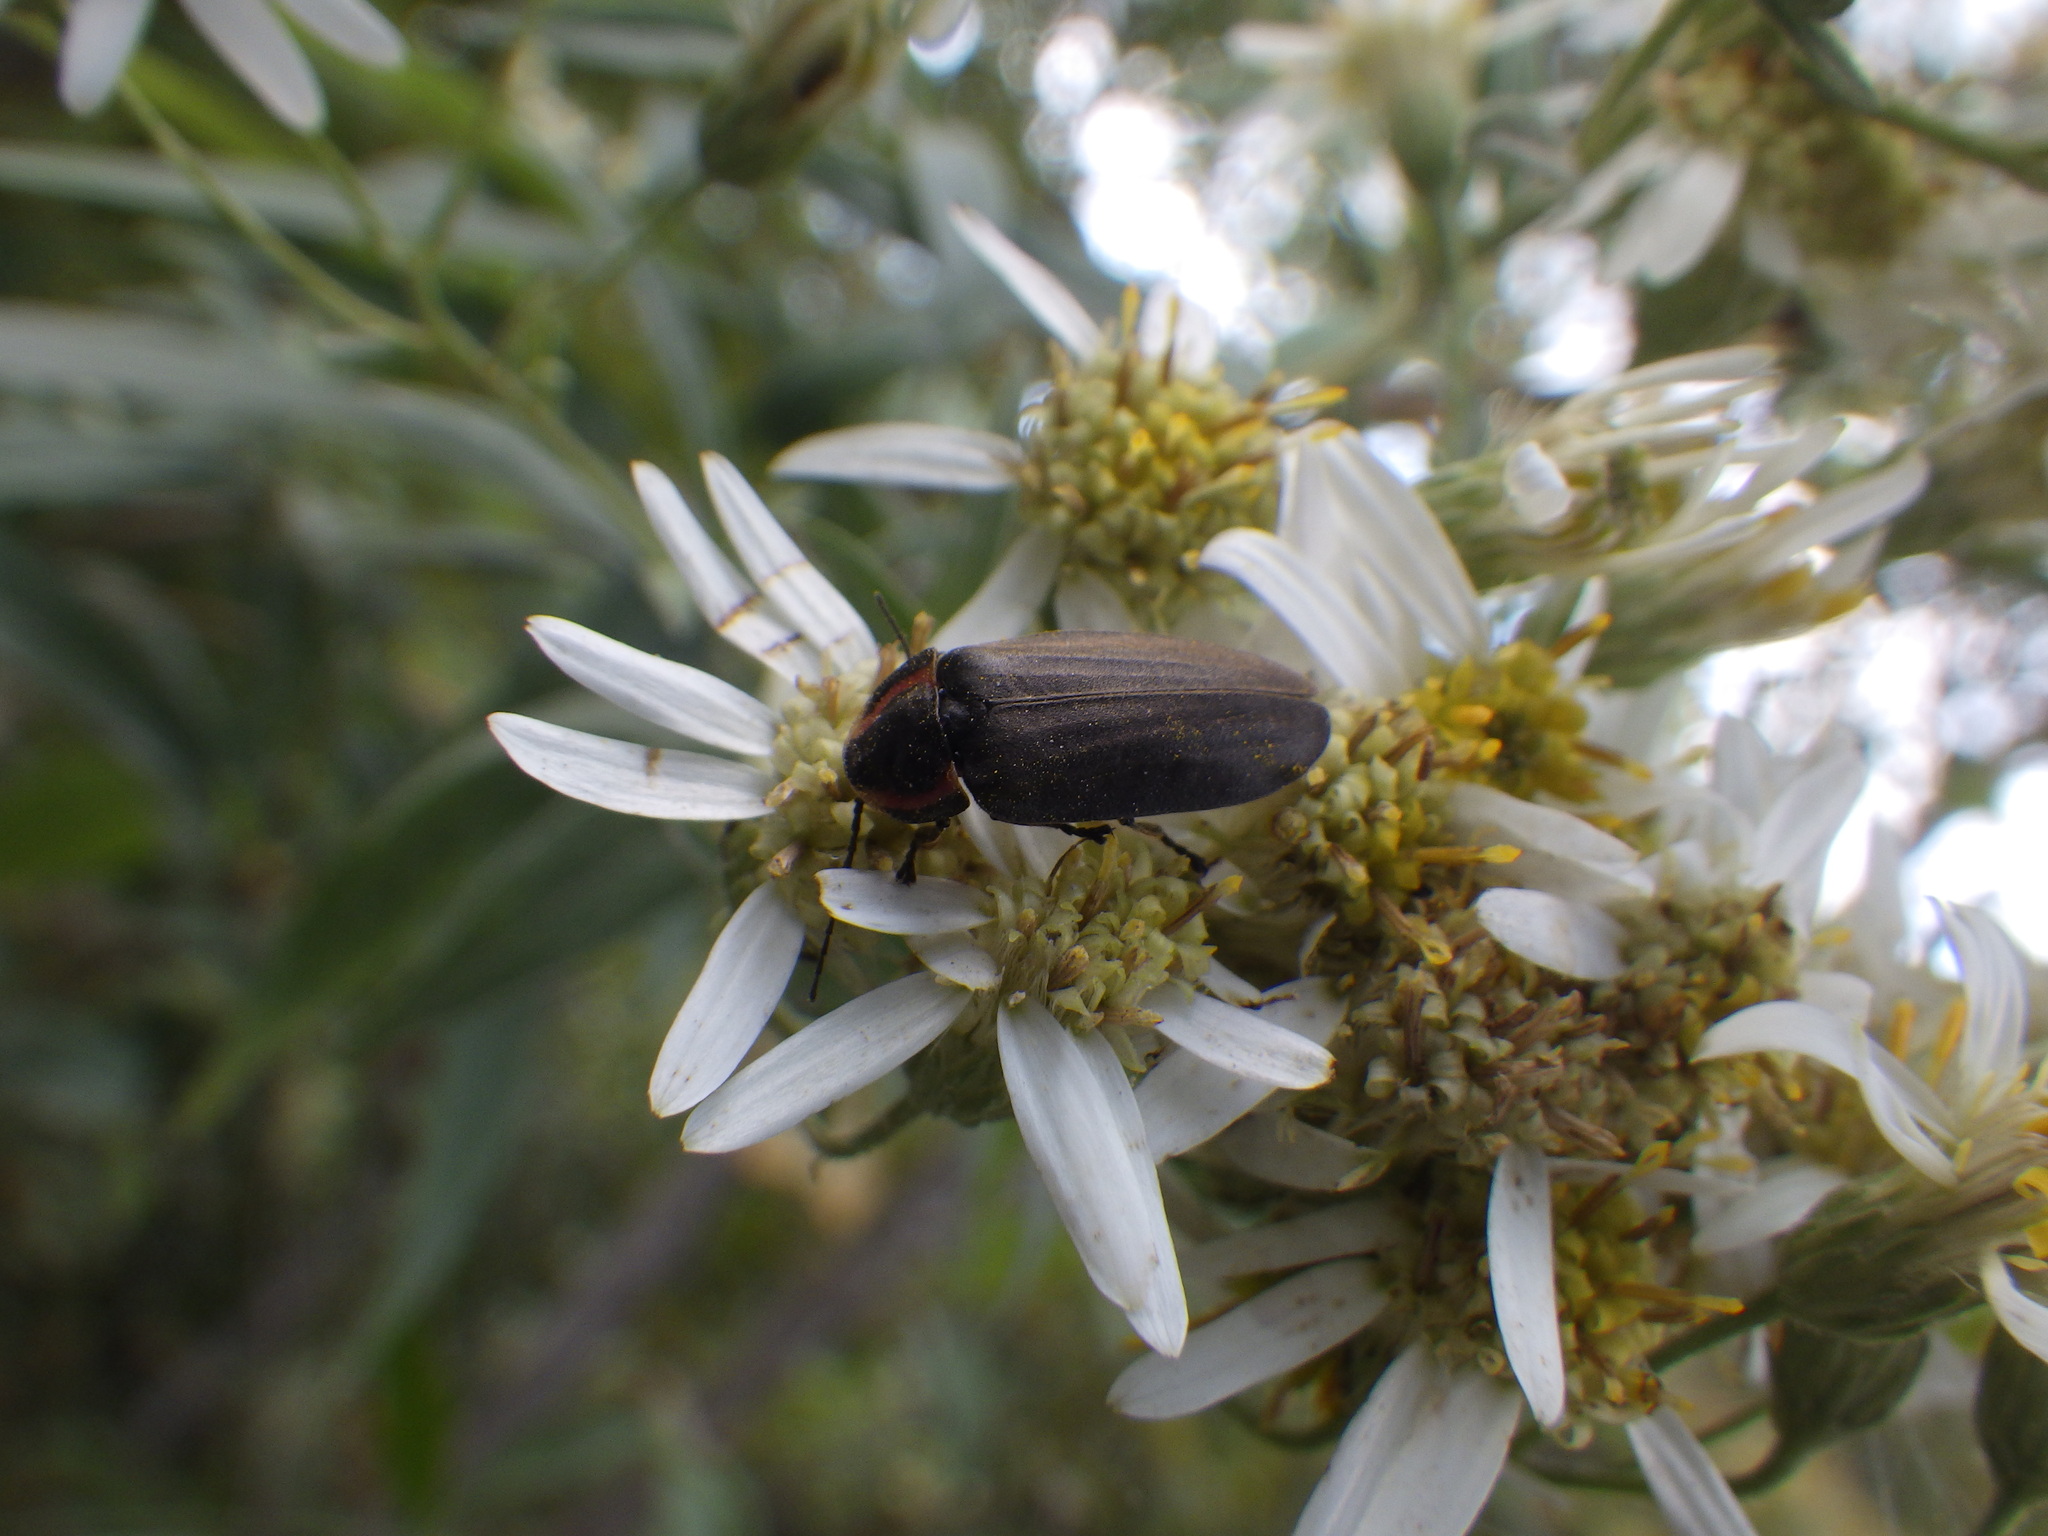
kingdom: Animalia
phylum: Arthropoda
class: Insecta
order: Coleoptera
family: Lampyridae
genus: Photinus
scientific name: Photinus corrusca
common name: Winter firefly
